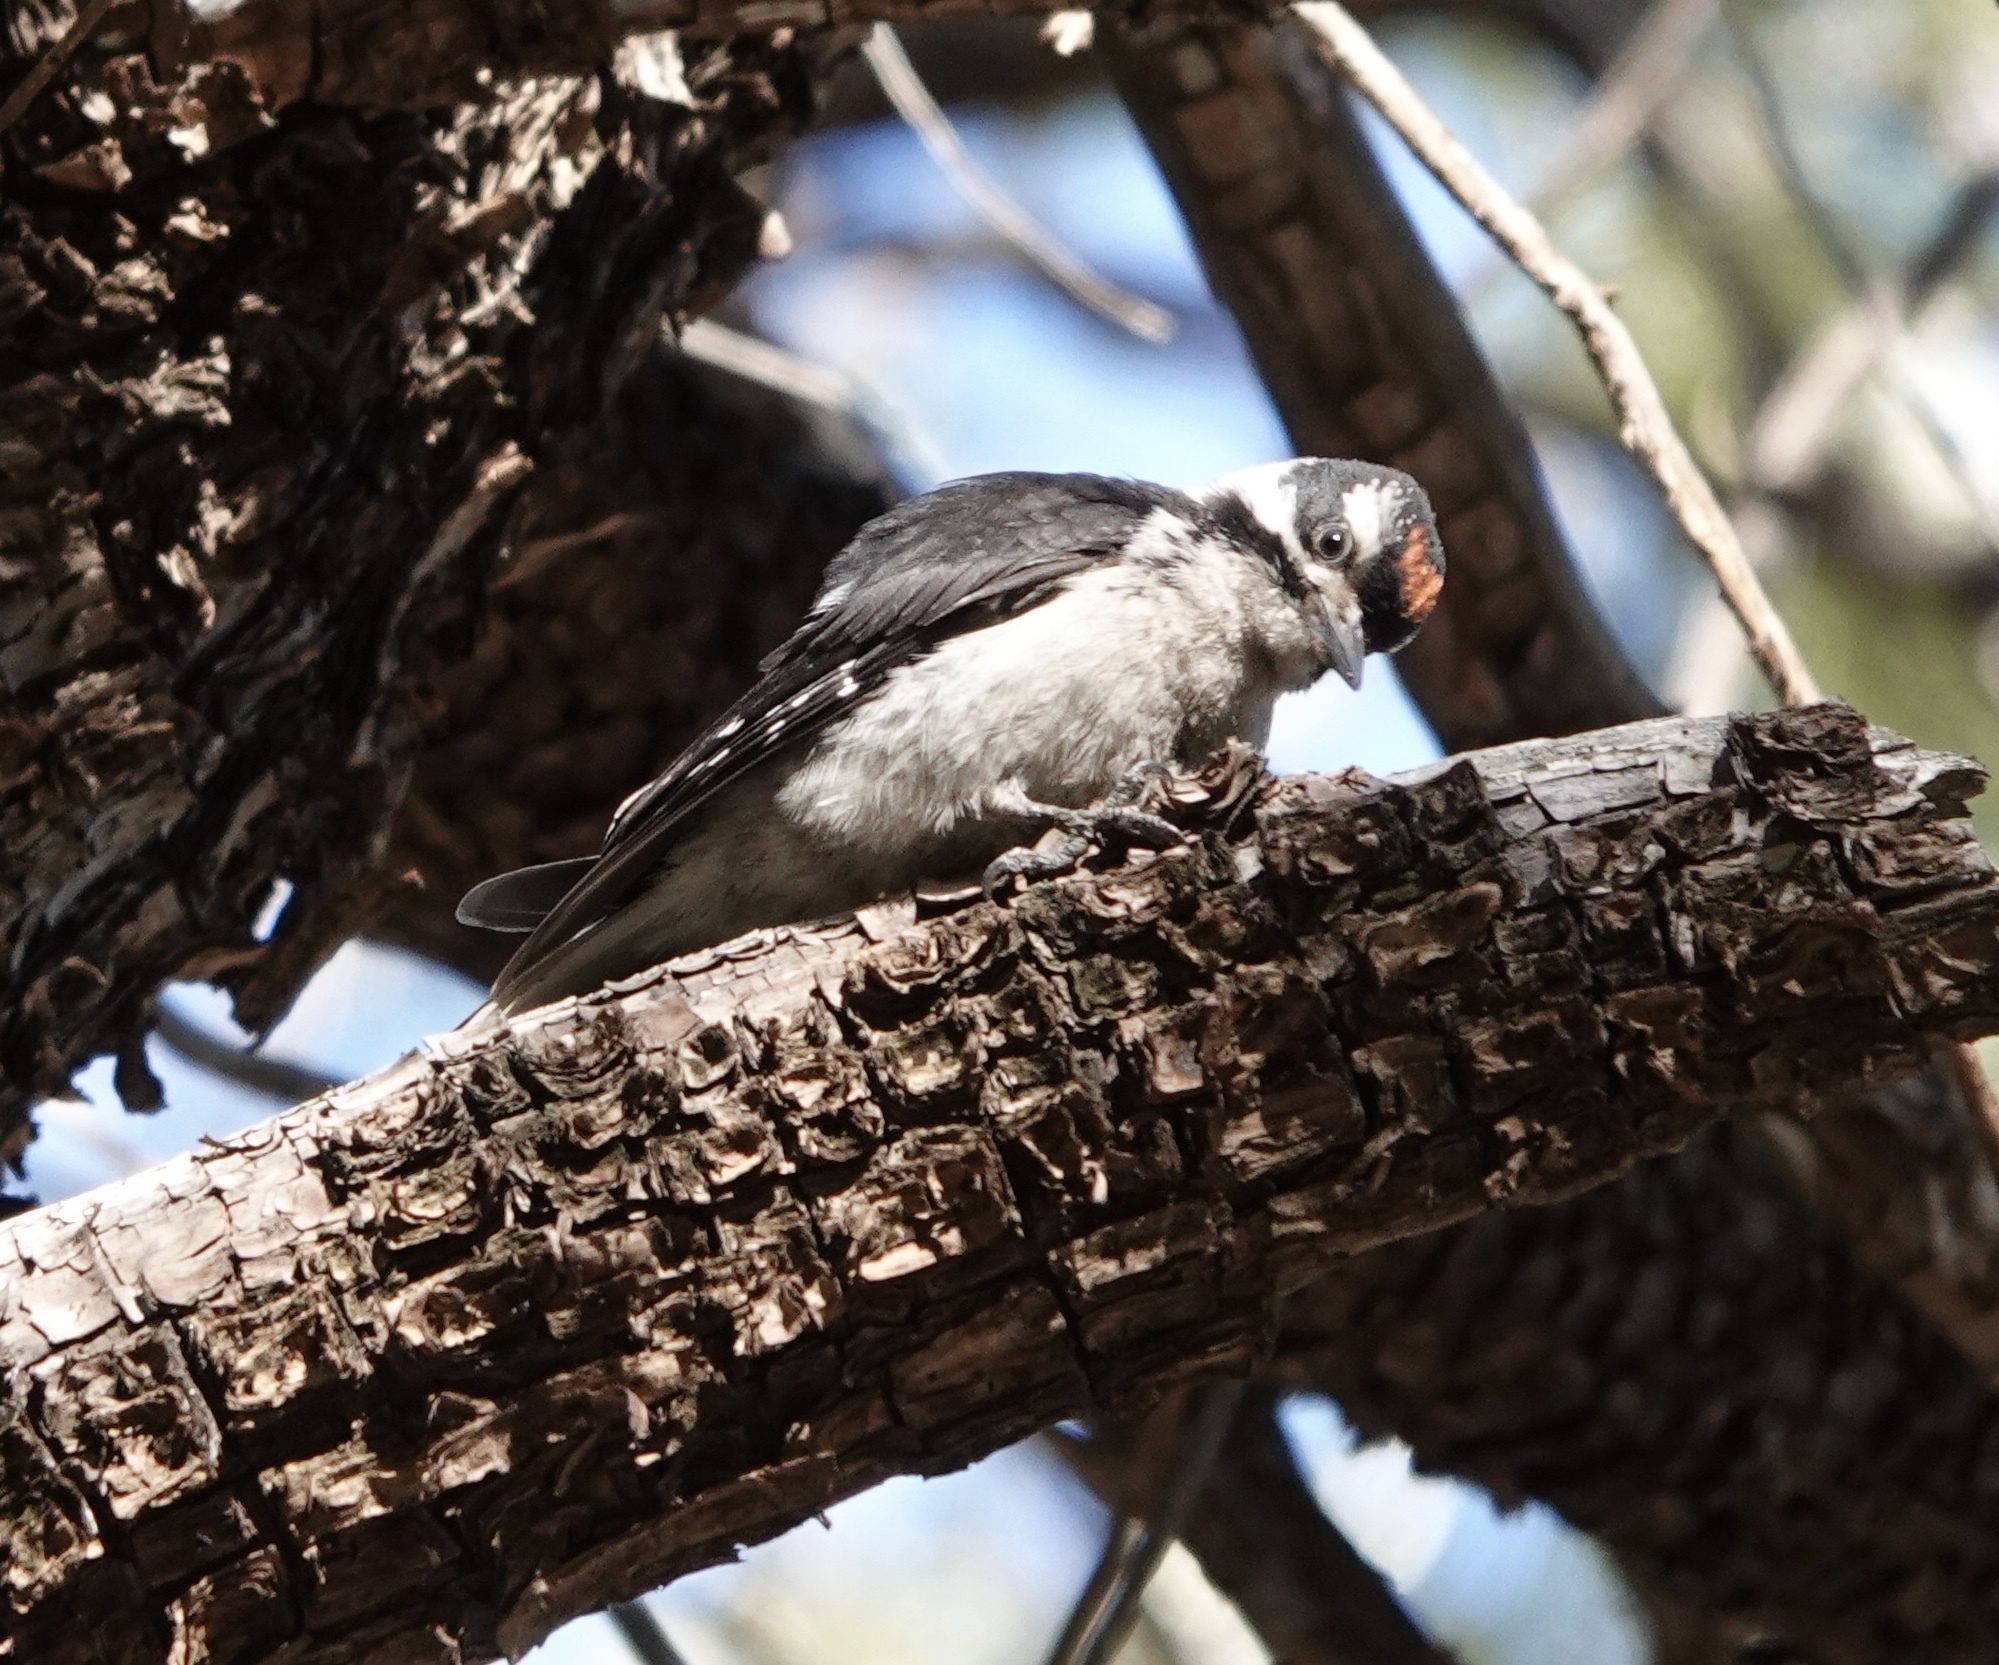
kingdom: Animalia
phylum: Chordata
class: Aves
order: Piciformes
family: Picidae
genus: Leuconotopicus
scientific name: Leuconotopicus villosus
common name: Hairy woodpecker
